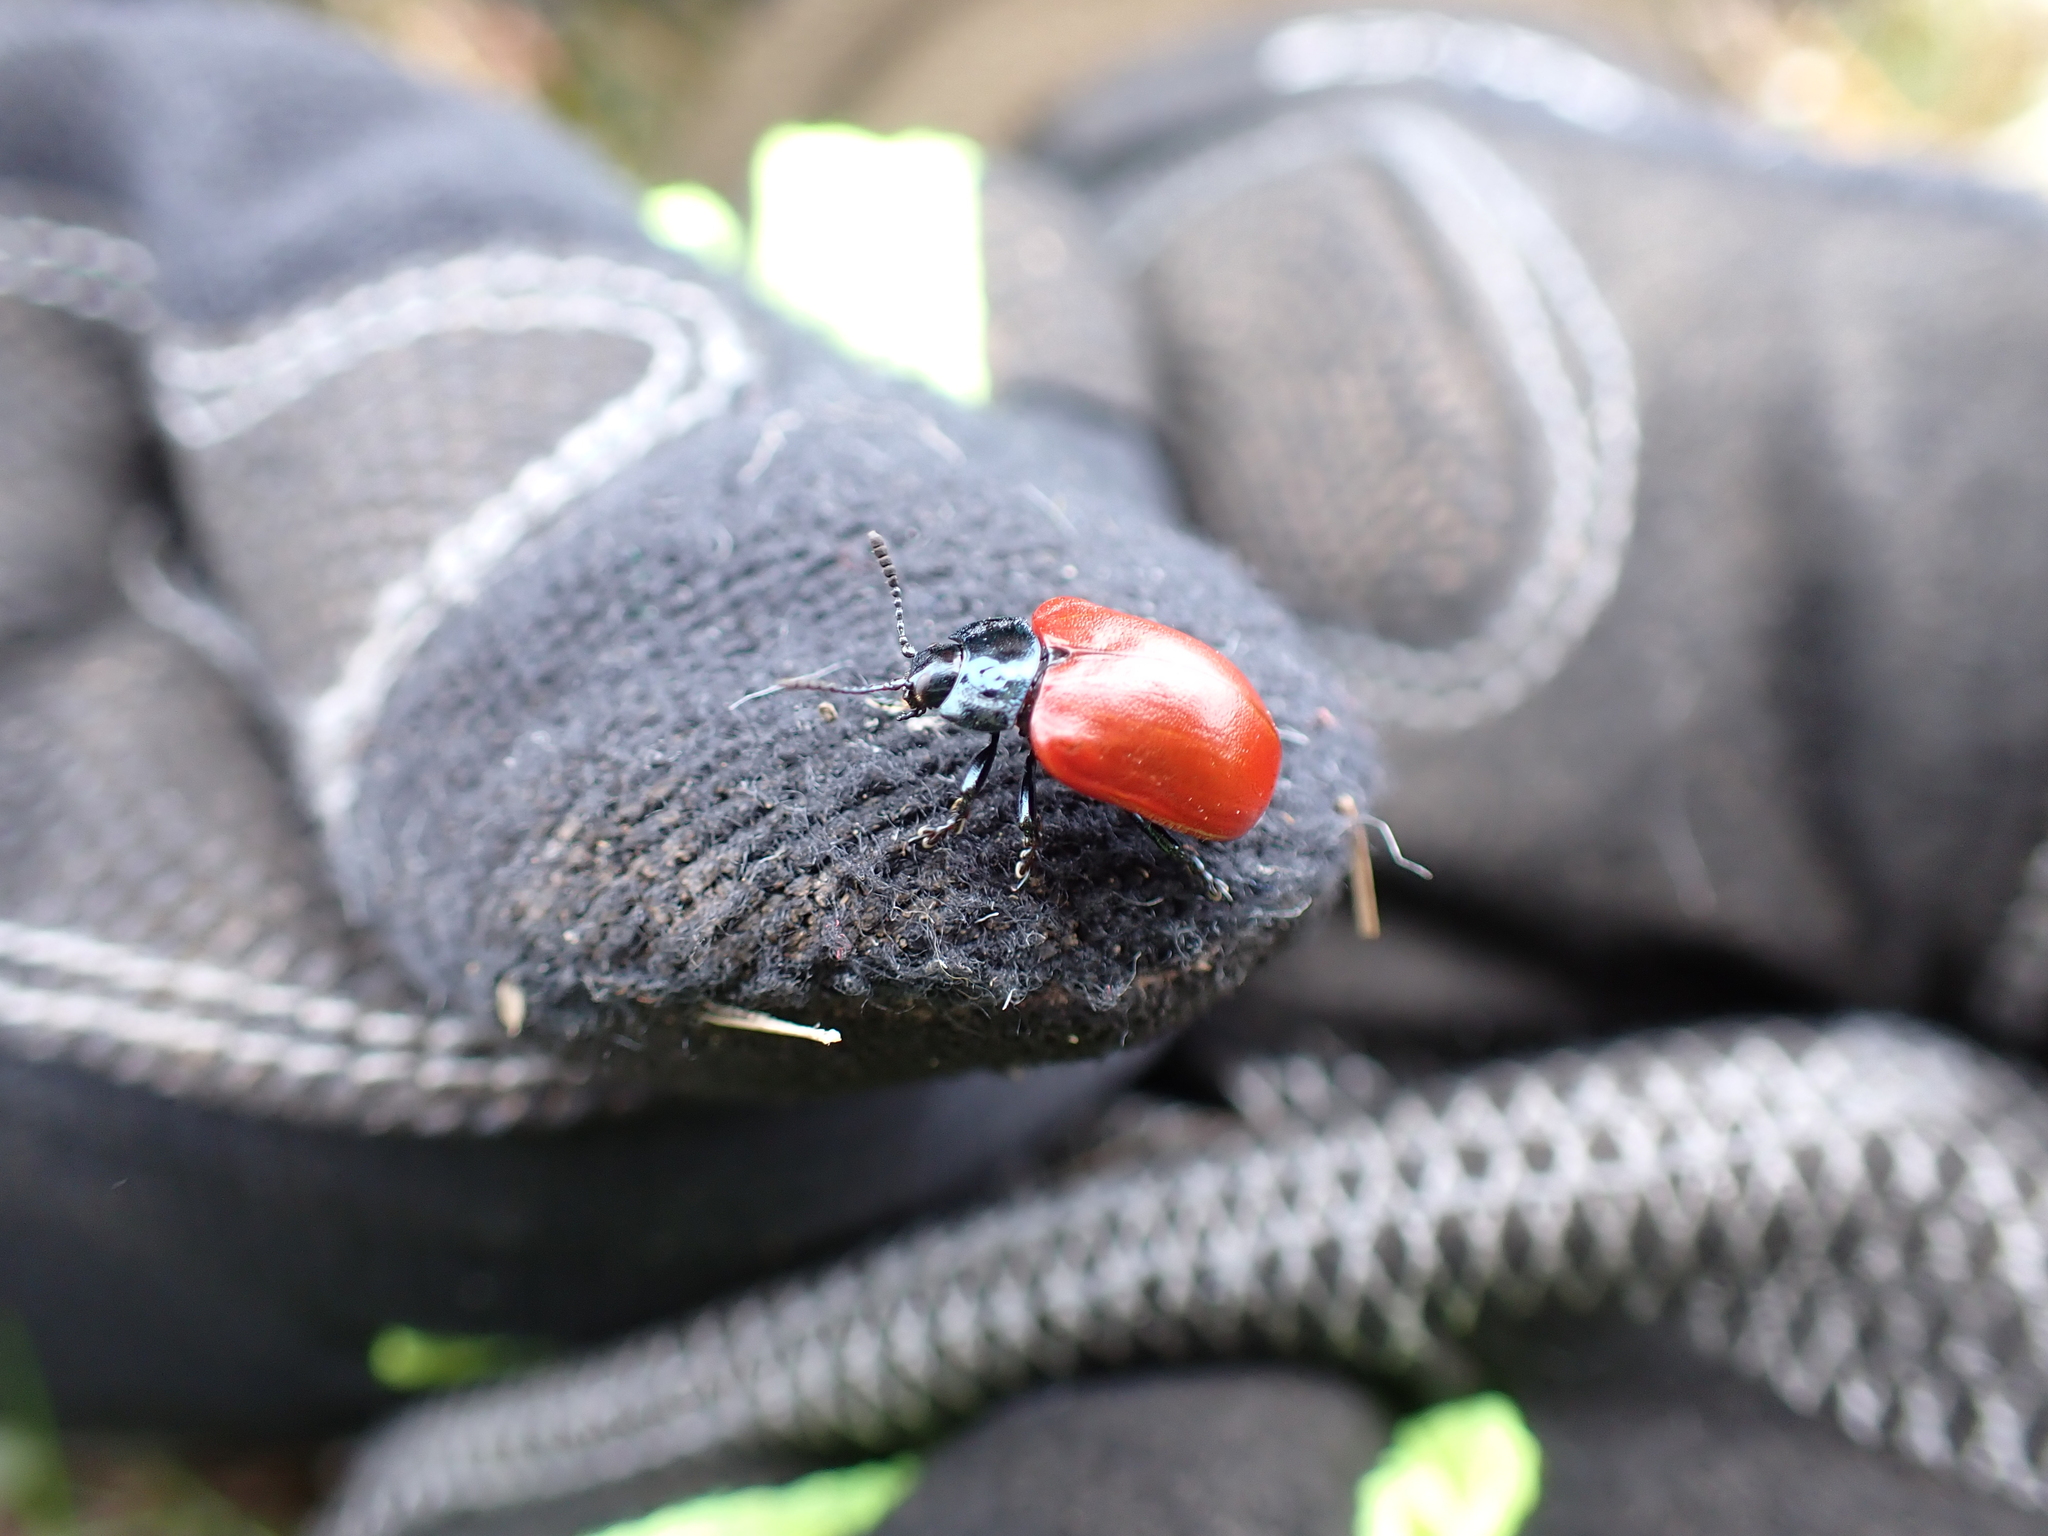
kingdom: Animalia
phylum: Arthropoda
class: Insecta
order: Coleoptera
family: Chrysomelidae
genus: Chrysomela
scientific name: Chrysomela populi
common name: Red poplar leaf beetle
